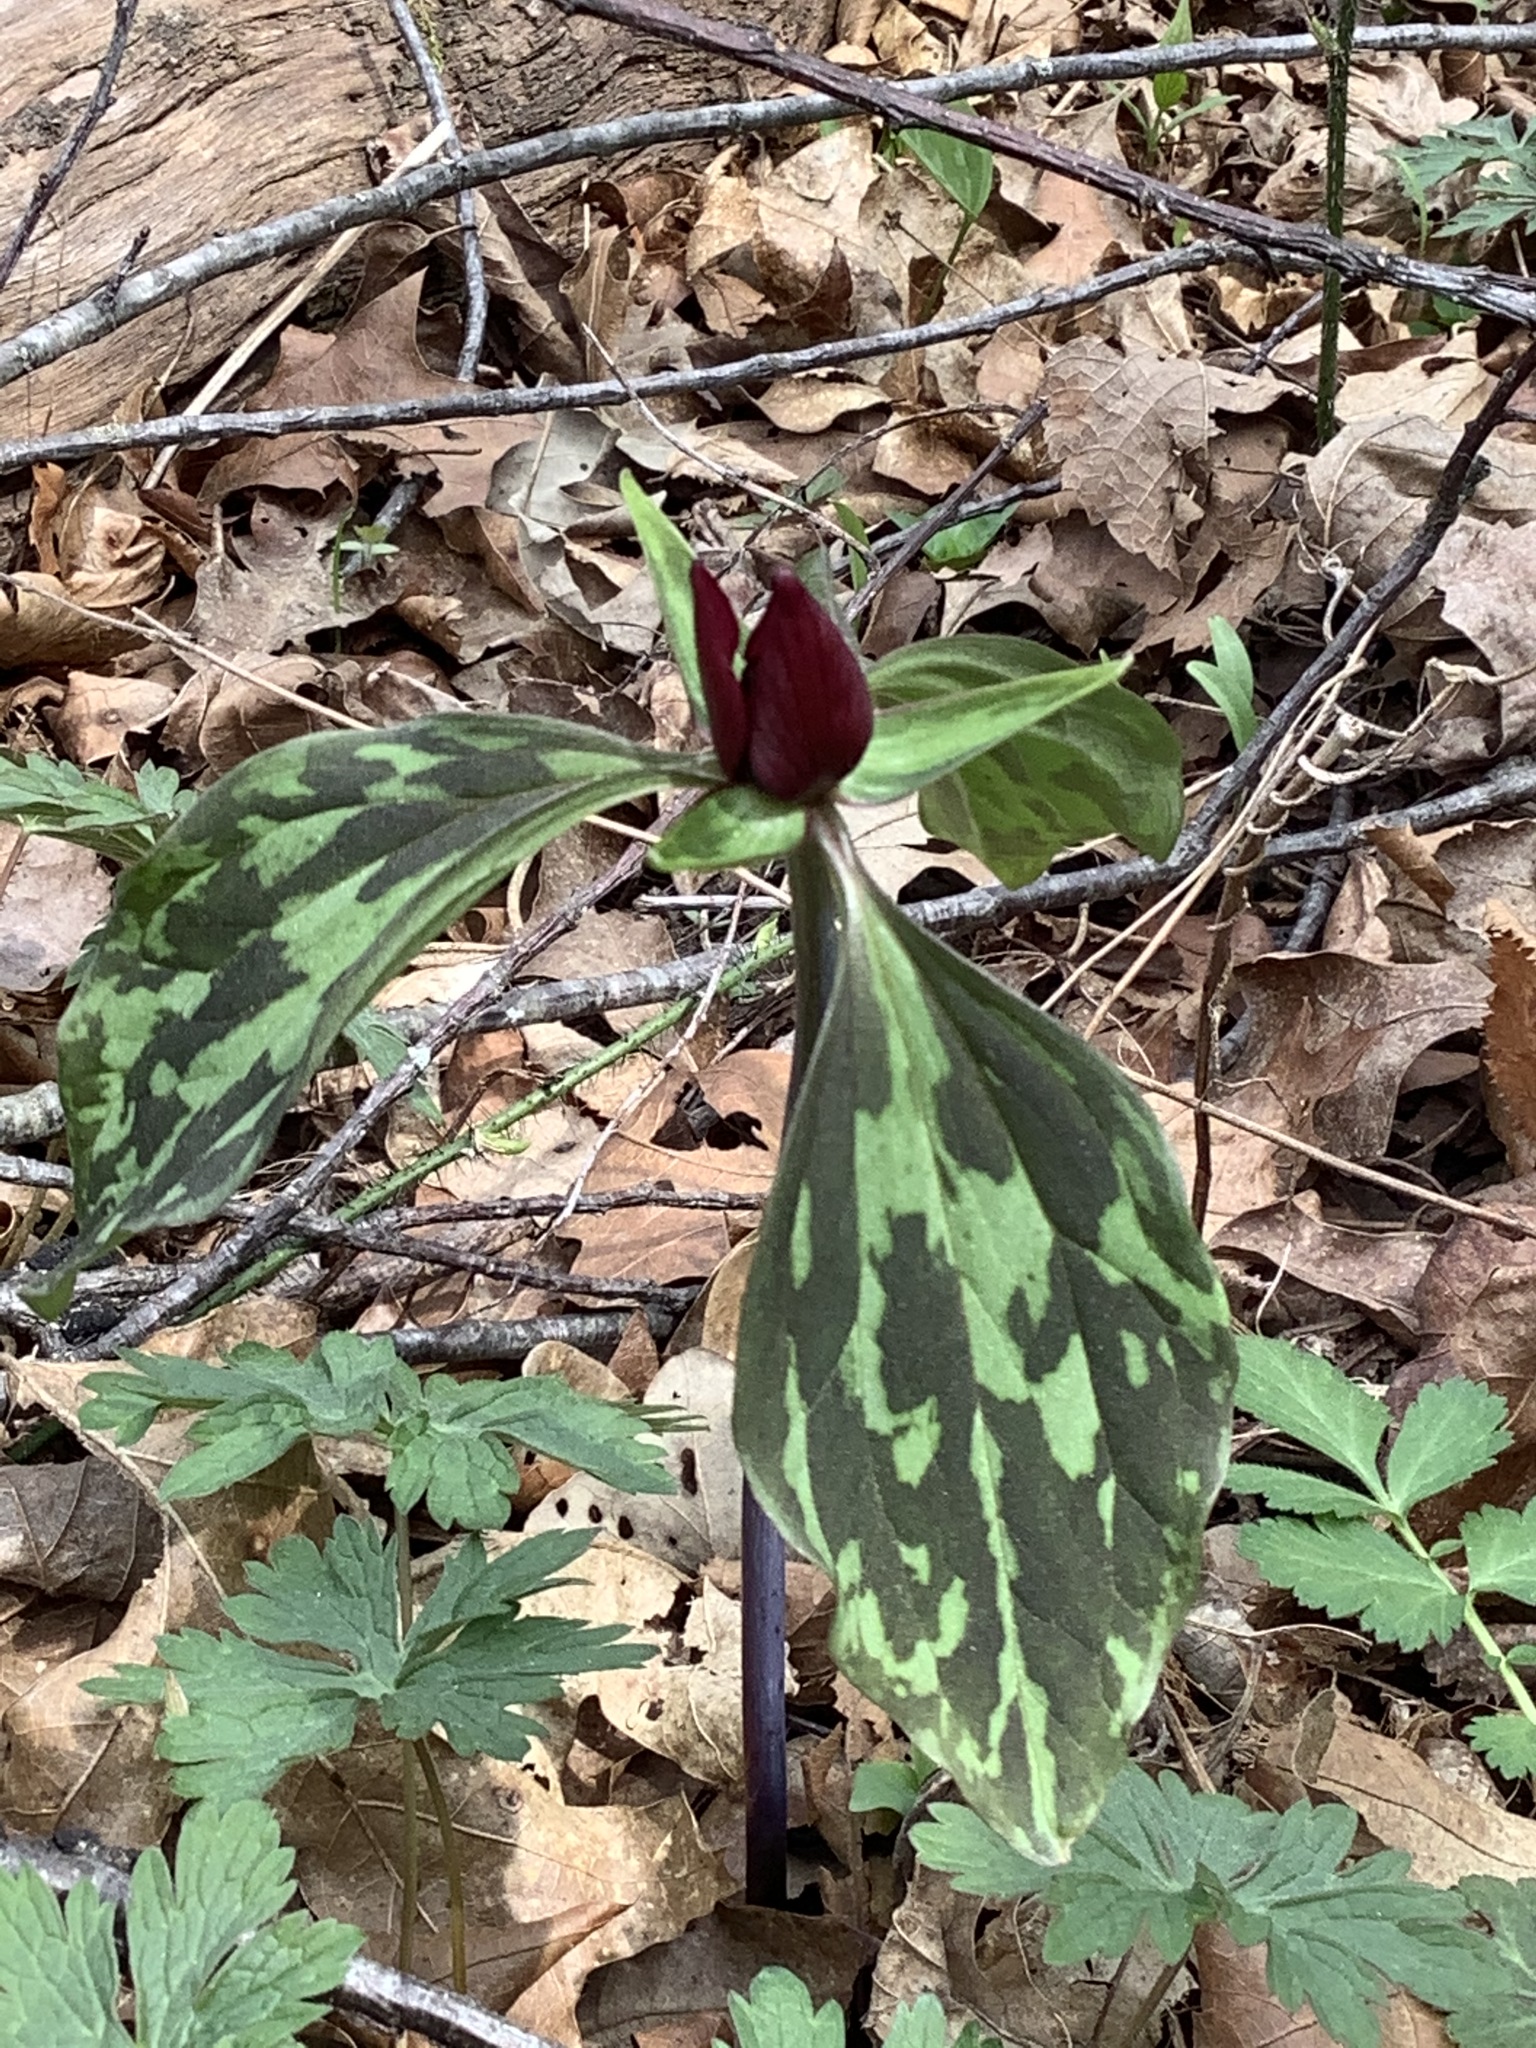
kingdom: Plantae
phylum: Tracheophyta
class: Liliopsida
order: Liliales
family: Melanthiaceae
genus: Trillium
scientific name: Trillium recurvatum
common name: Bloody butcher
